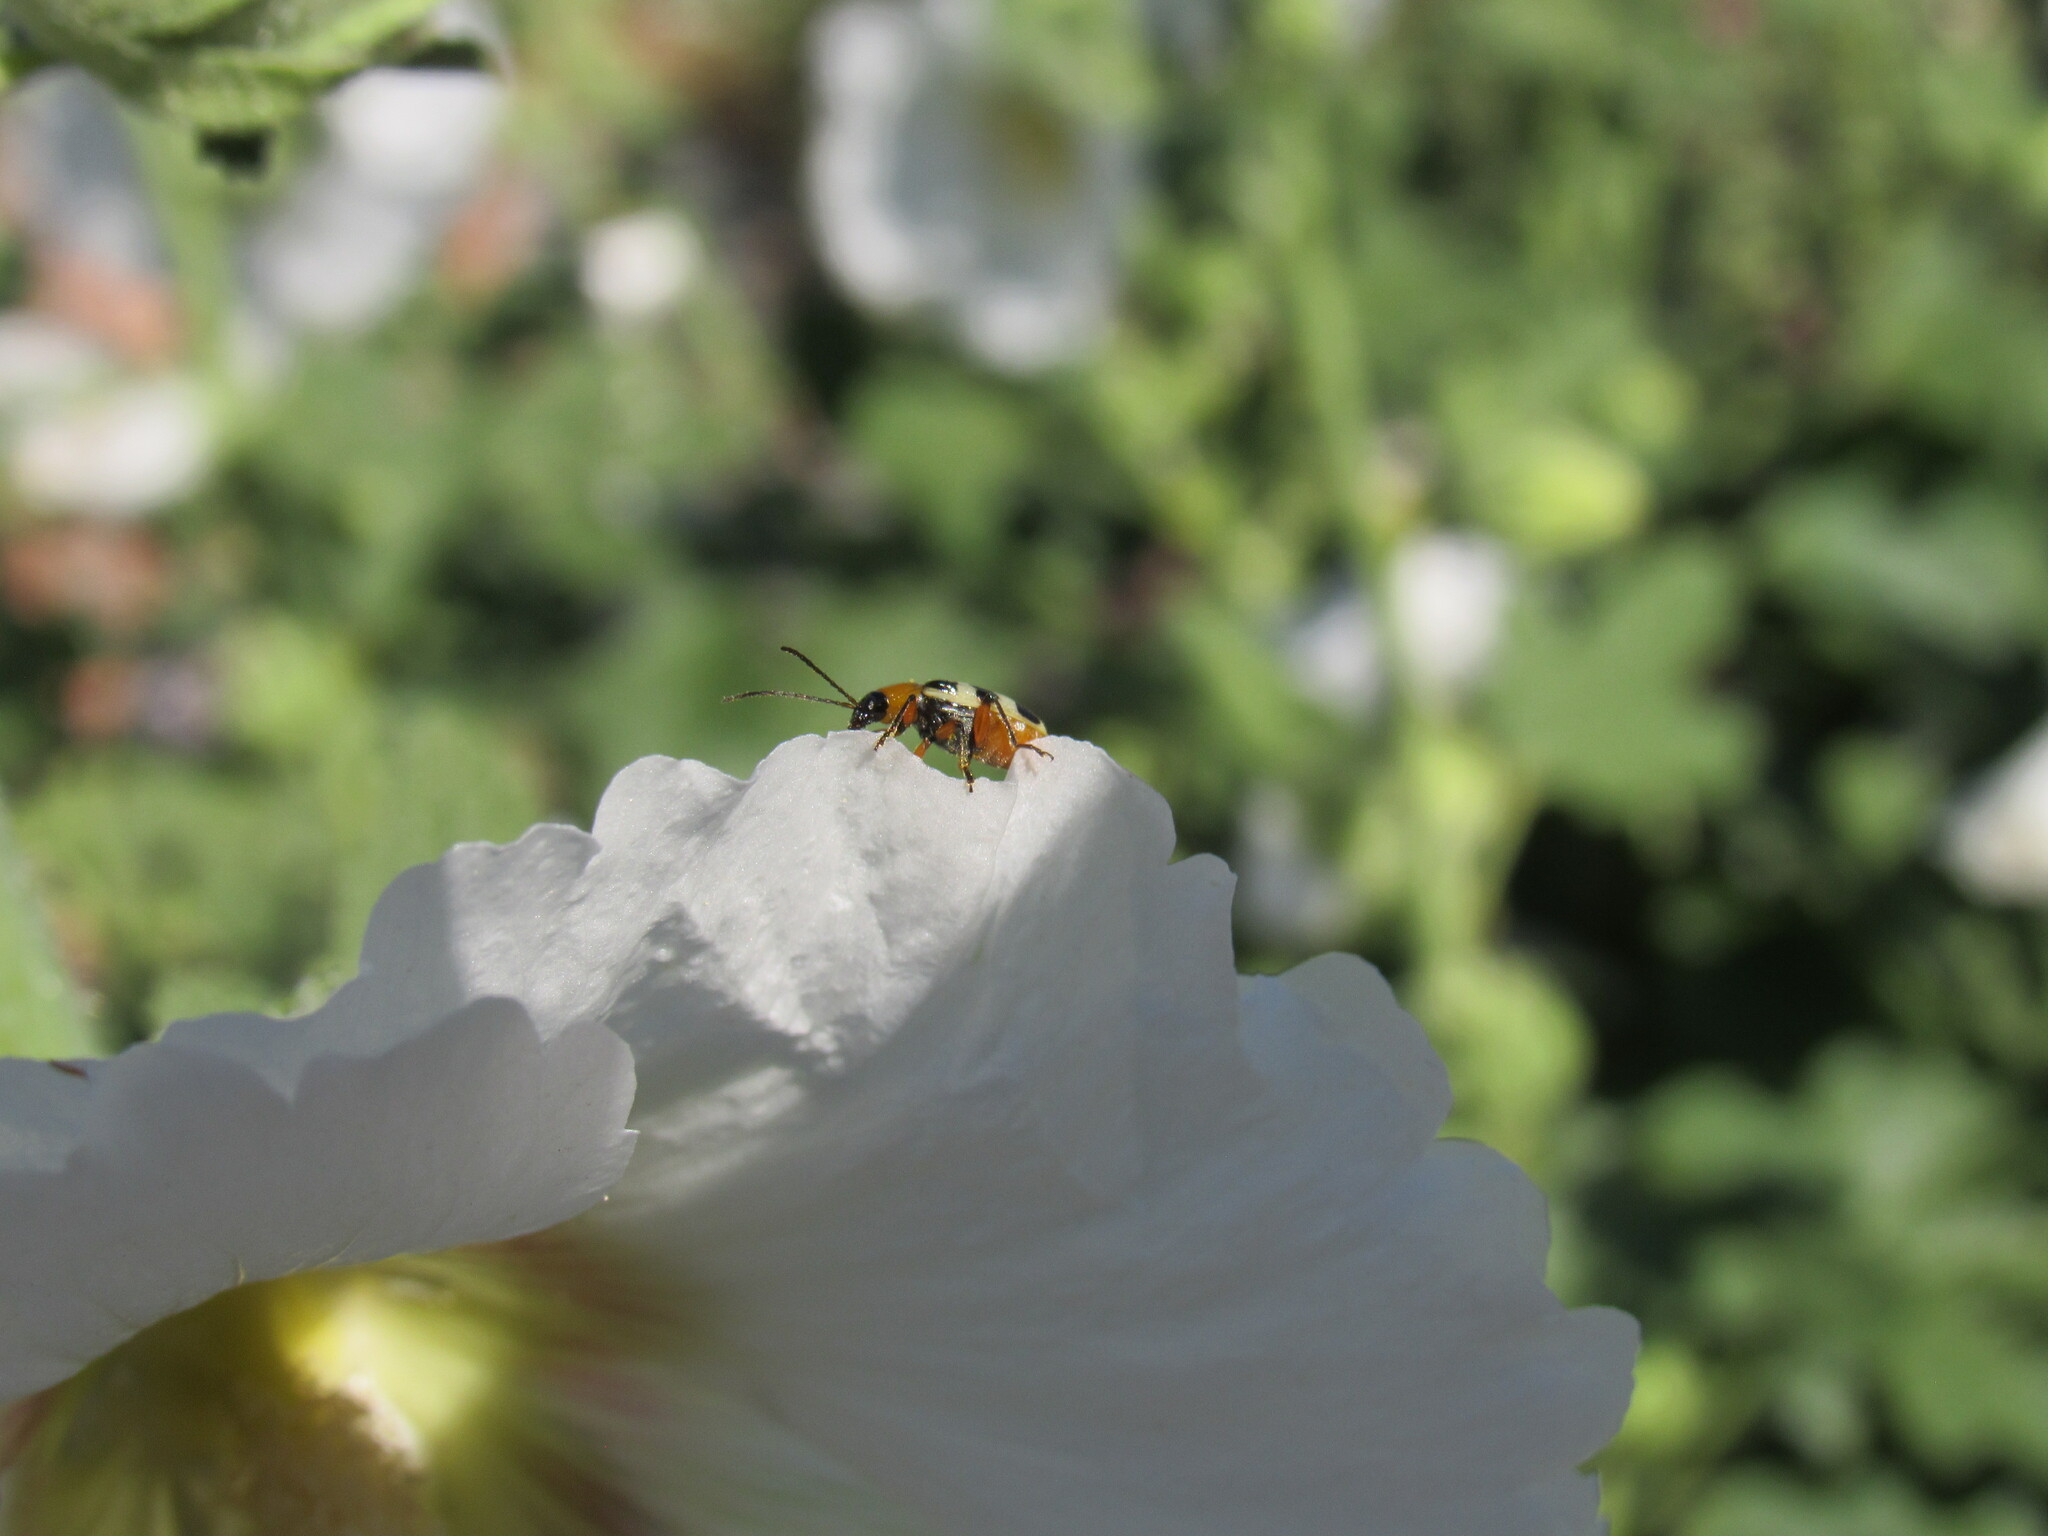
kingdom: Animalia
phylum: Arthropoda
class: Insecta
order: Coleoptera
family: Chrysomelidae
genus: Paranapiacaba
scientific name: Paranapiacaba tricincta
